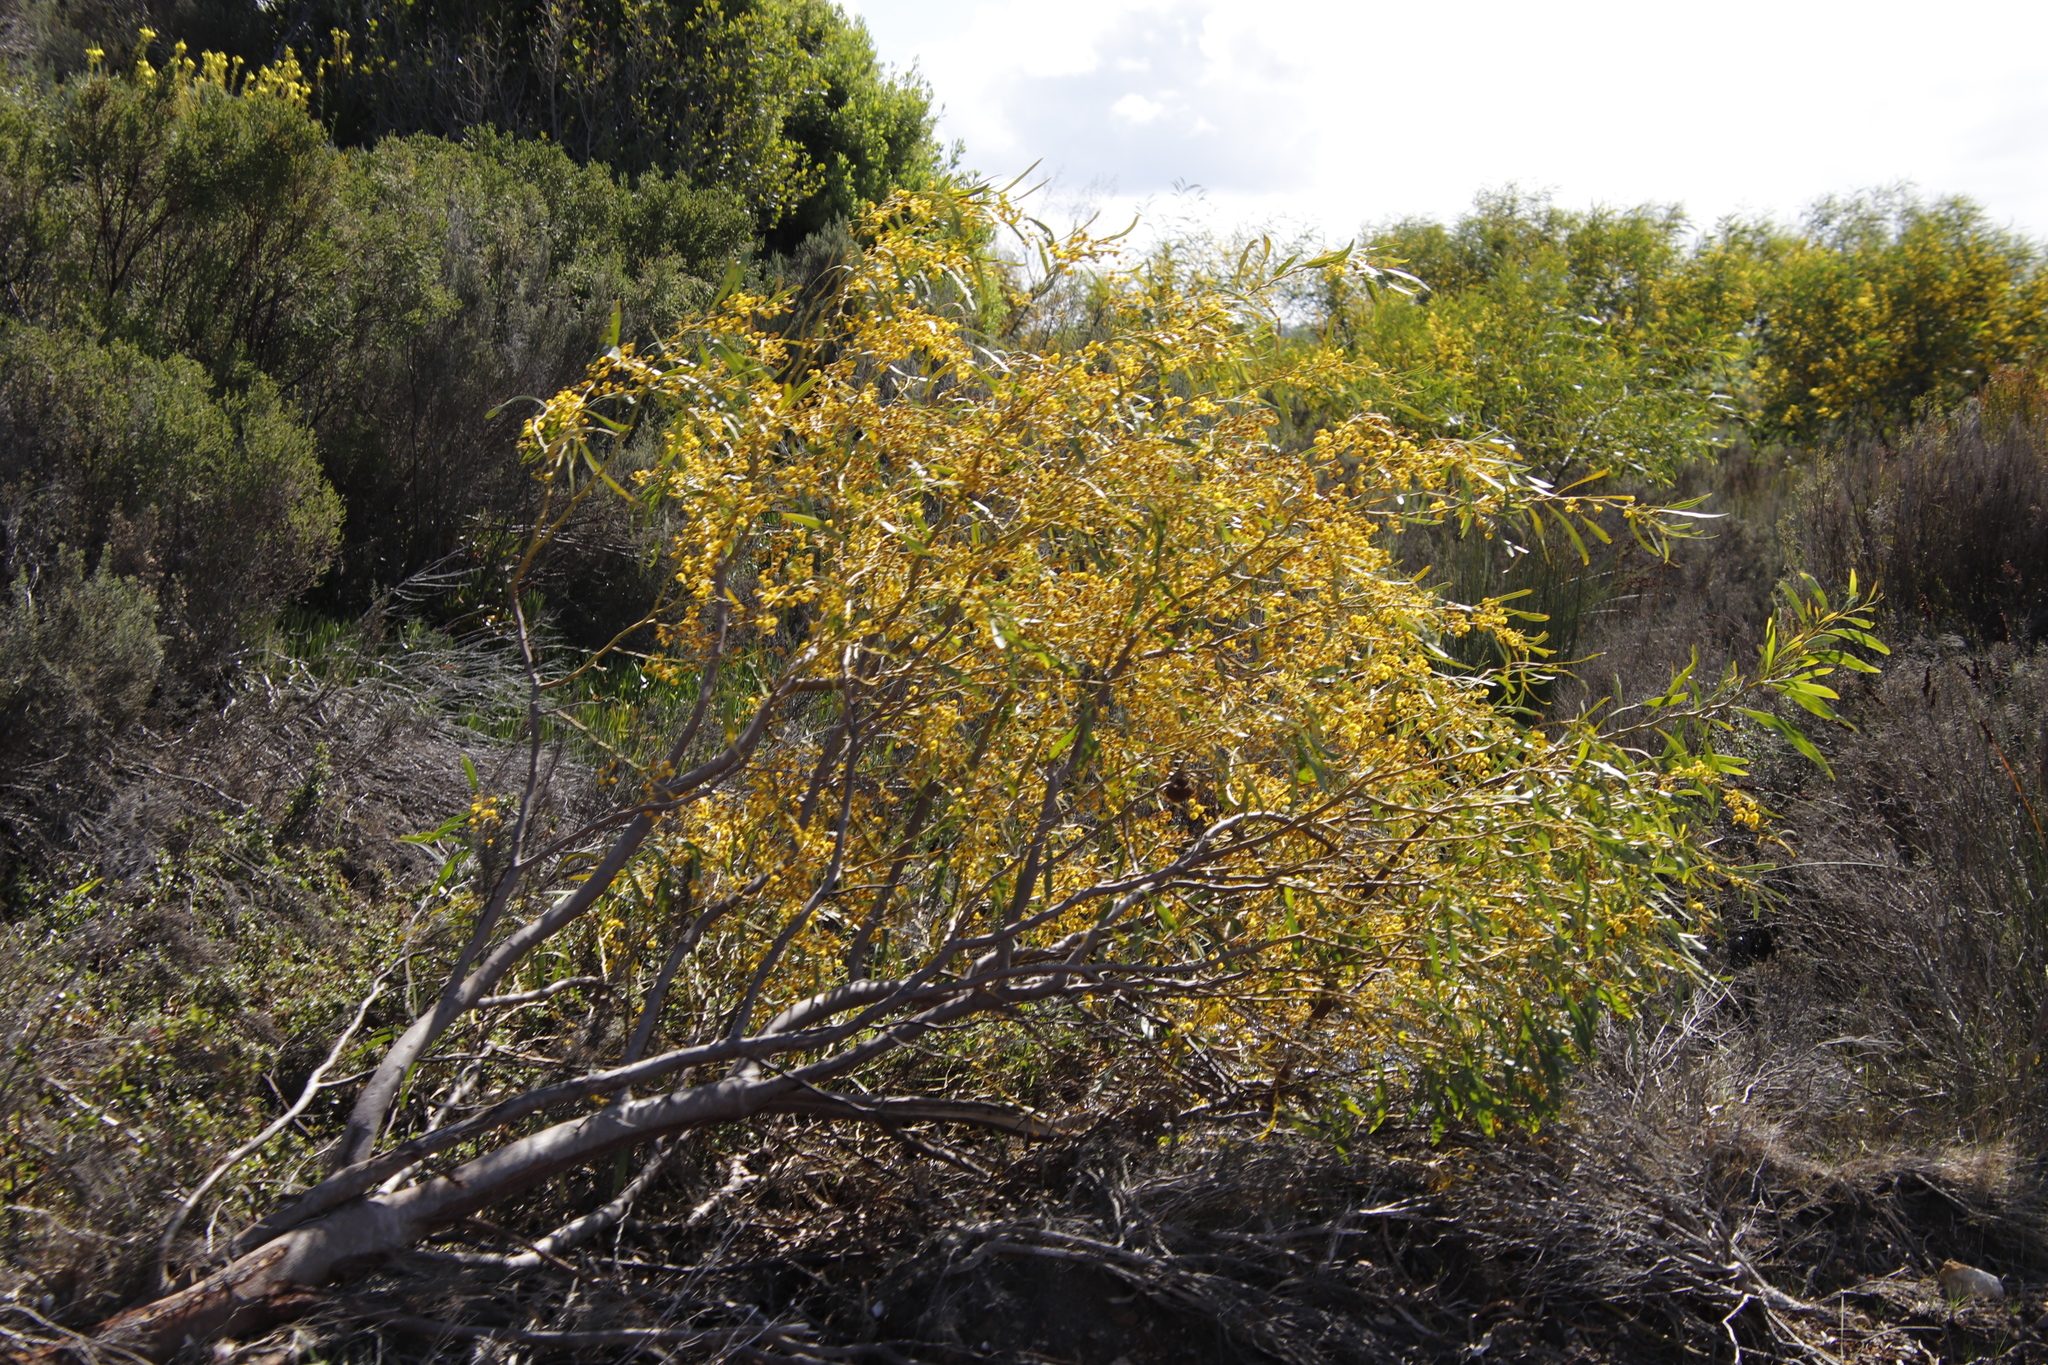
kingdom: Plantae
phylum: Tracheophyta
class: Magnoliopsida
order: Fabales
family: Fabaceae
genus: Acacia
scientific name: Acacia saligna
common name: Orange wattle
